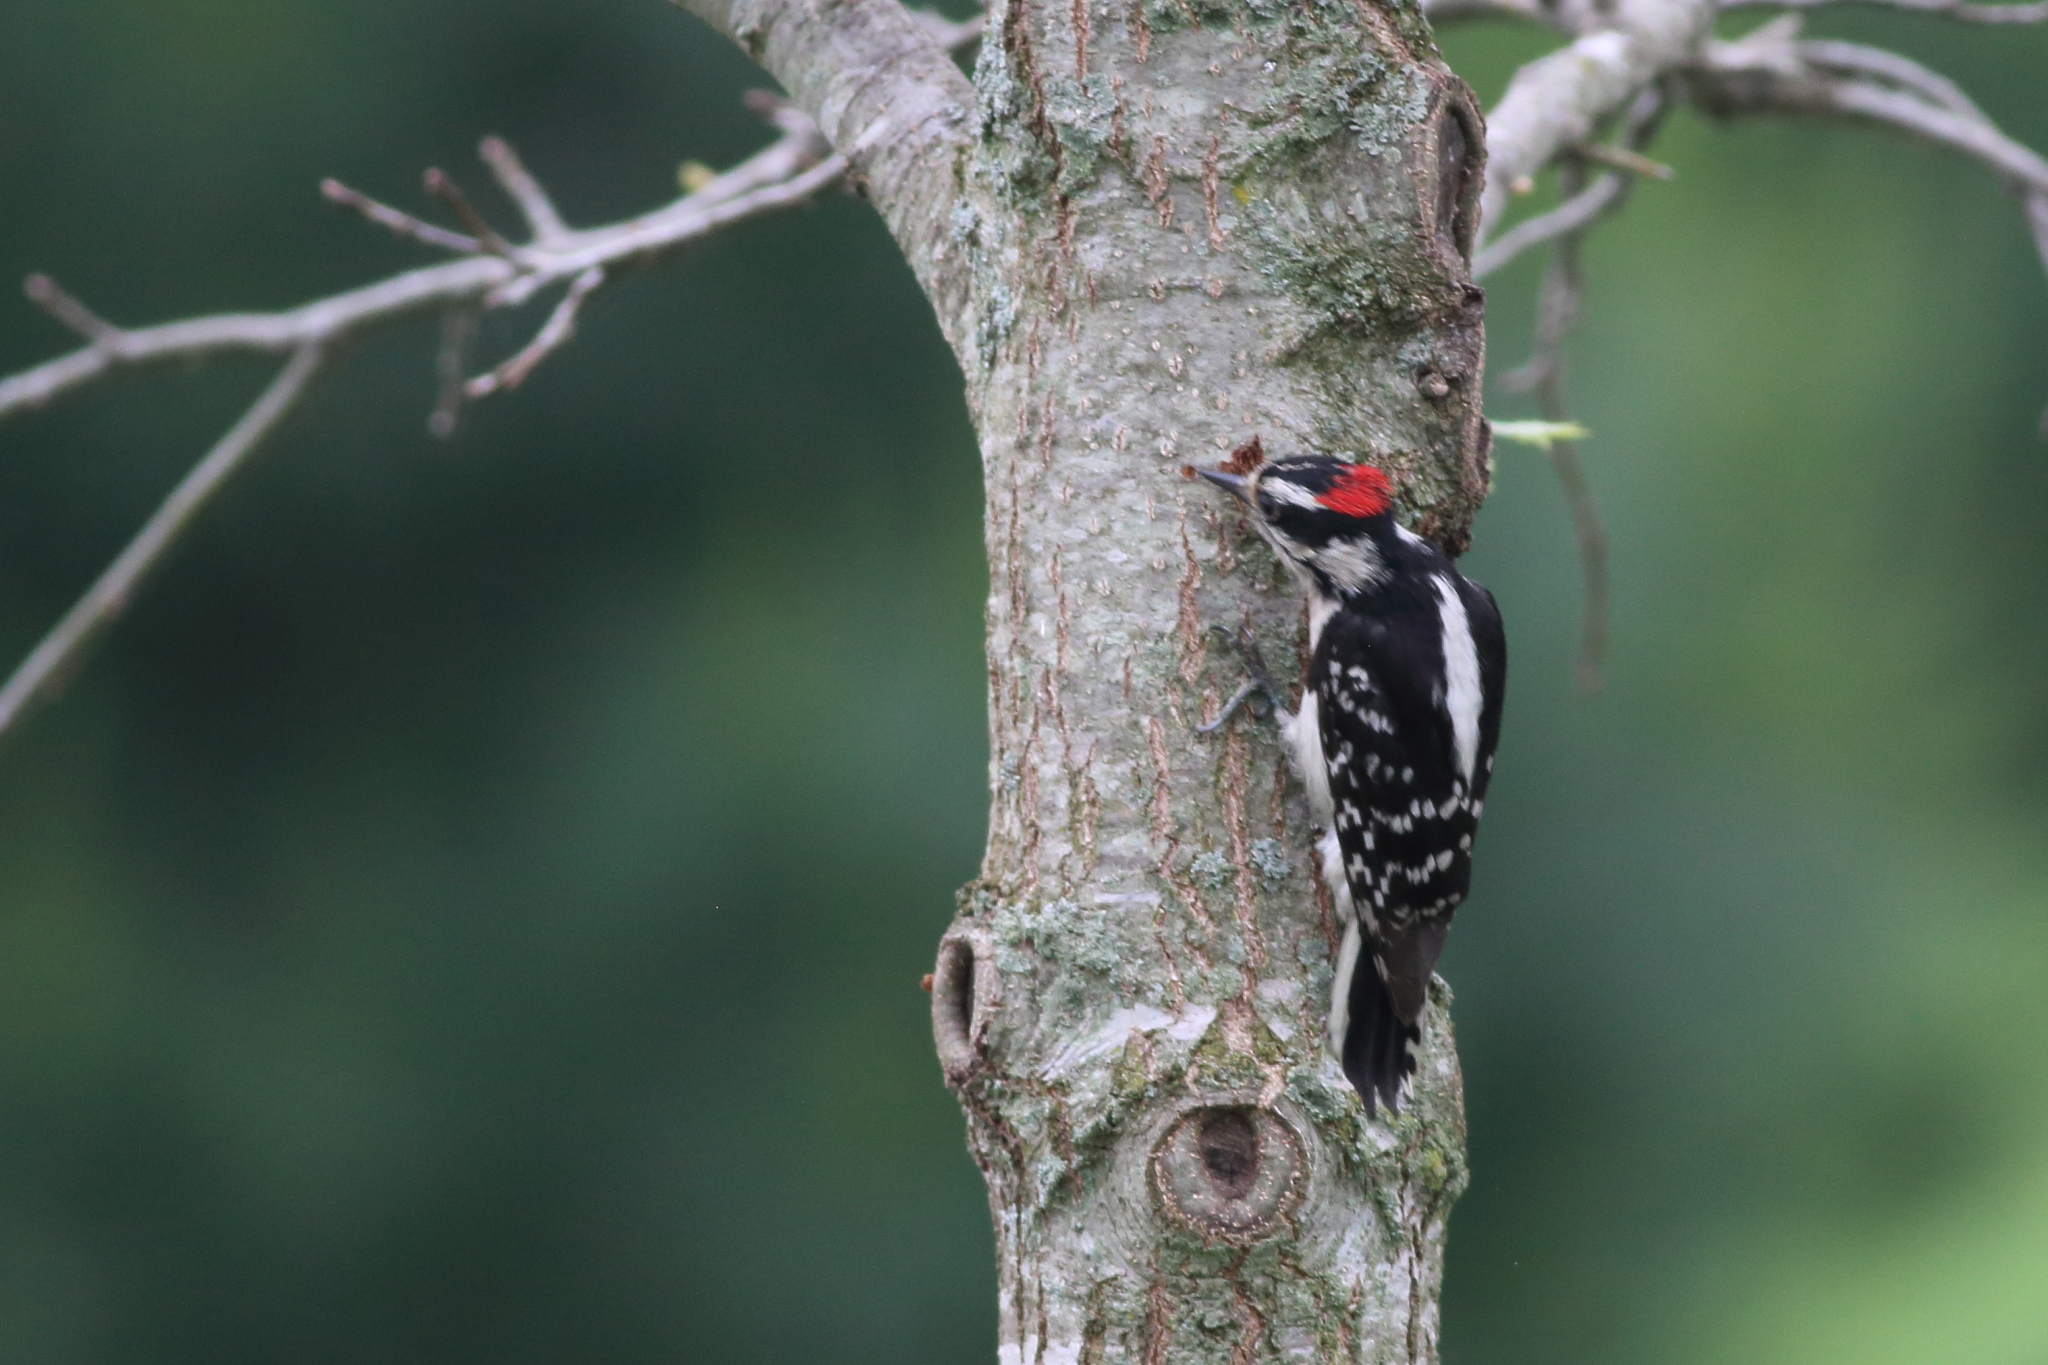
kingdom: Animalia
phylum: Chordata
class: Aves
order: Piciformes
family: Picidae
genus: Dryobates
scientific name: Dryobates pubescens
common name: Downy woodpecker
